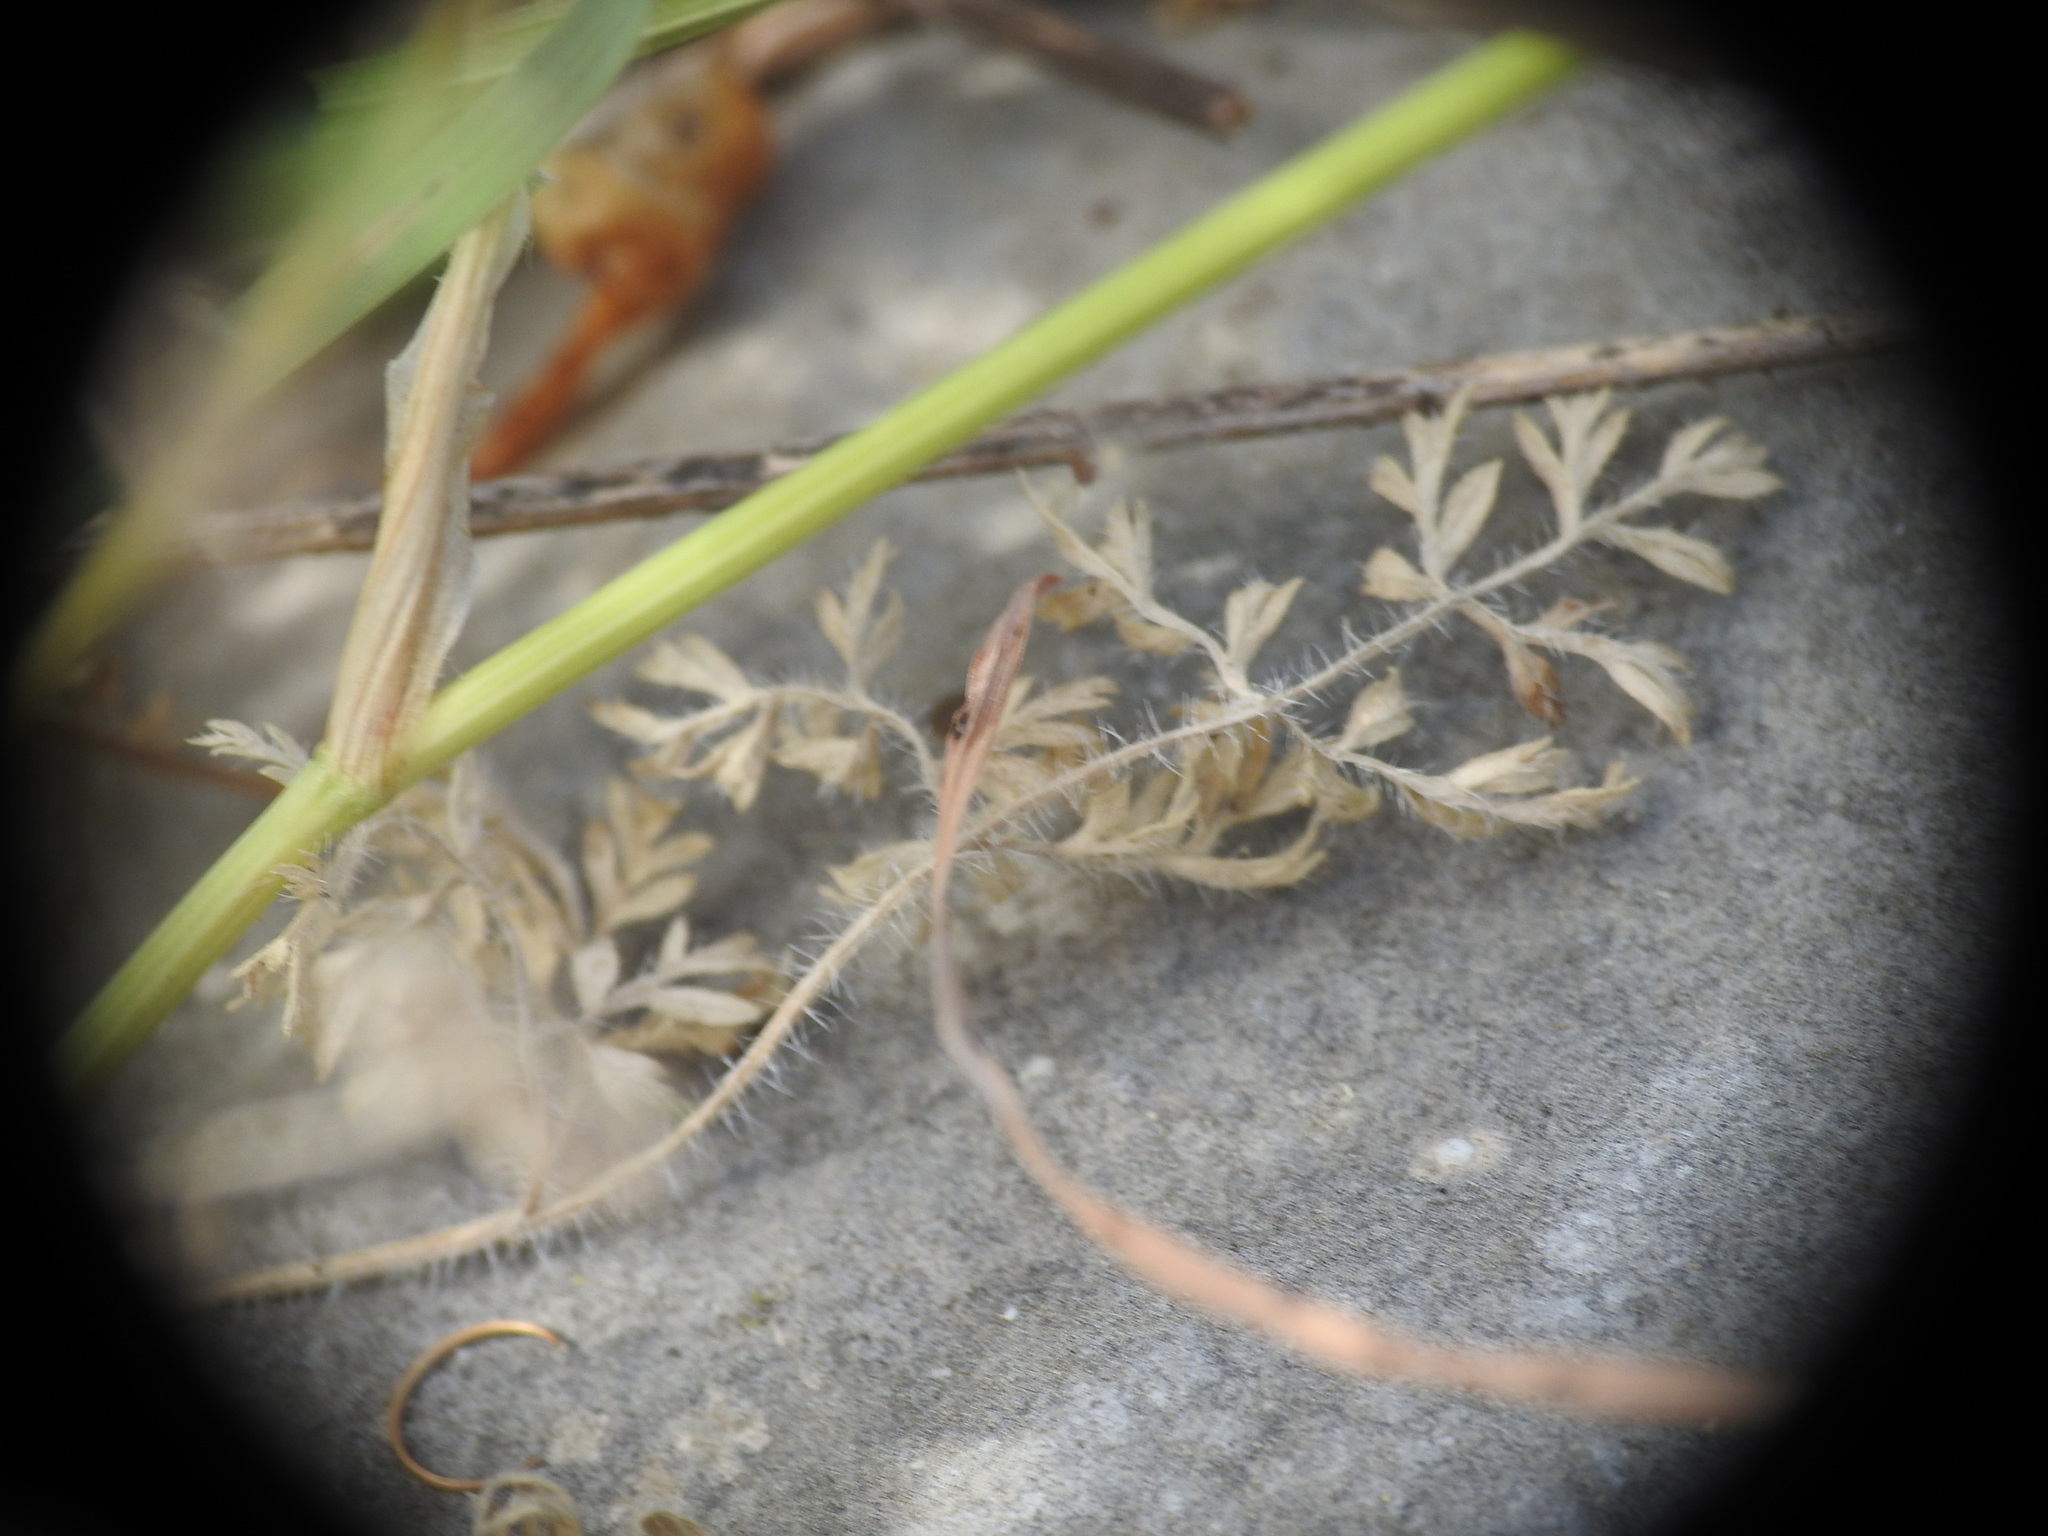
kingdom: Plantae
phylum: Tracheophyta
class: Magnoliopsida
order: Apiales
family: Apiaceae
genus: Orlaya
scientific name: Orlaya daucoides
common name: Flat-fruit orlaya
